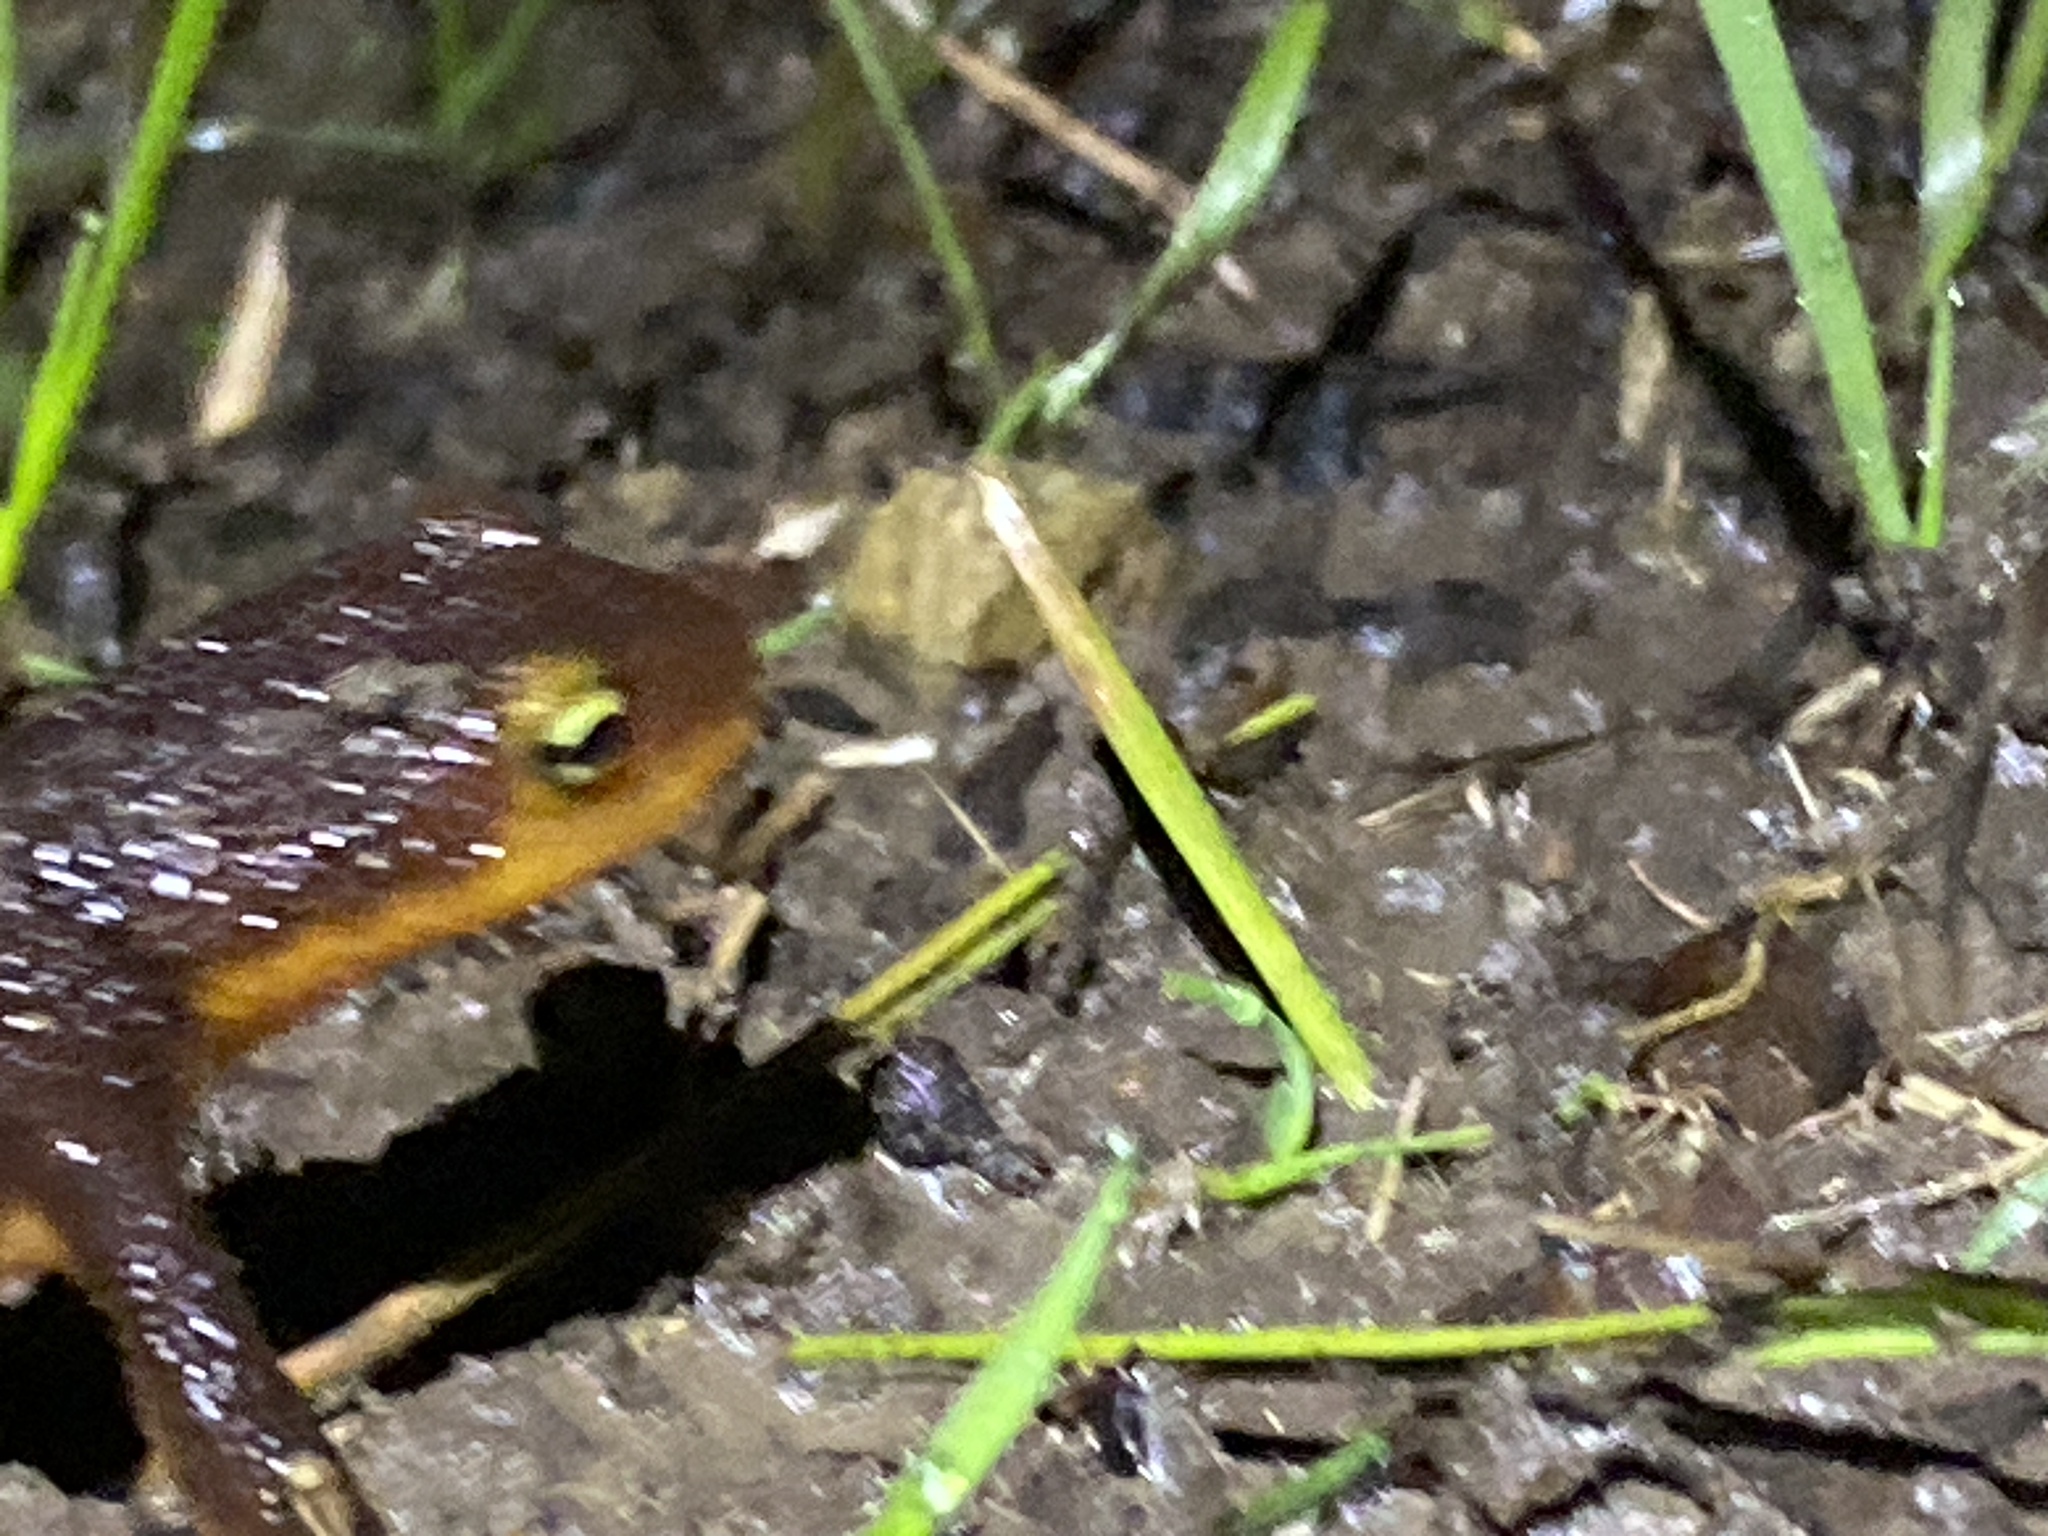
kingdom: Animalia
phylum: Chordata
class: Amphibia
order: Caudata
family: Salamandridae
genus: Taricha
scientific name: Taricha torosa
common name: California newt
